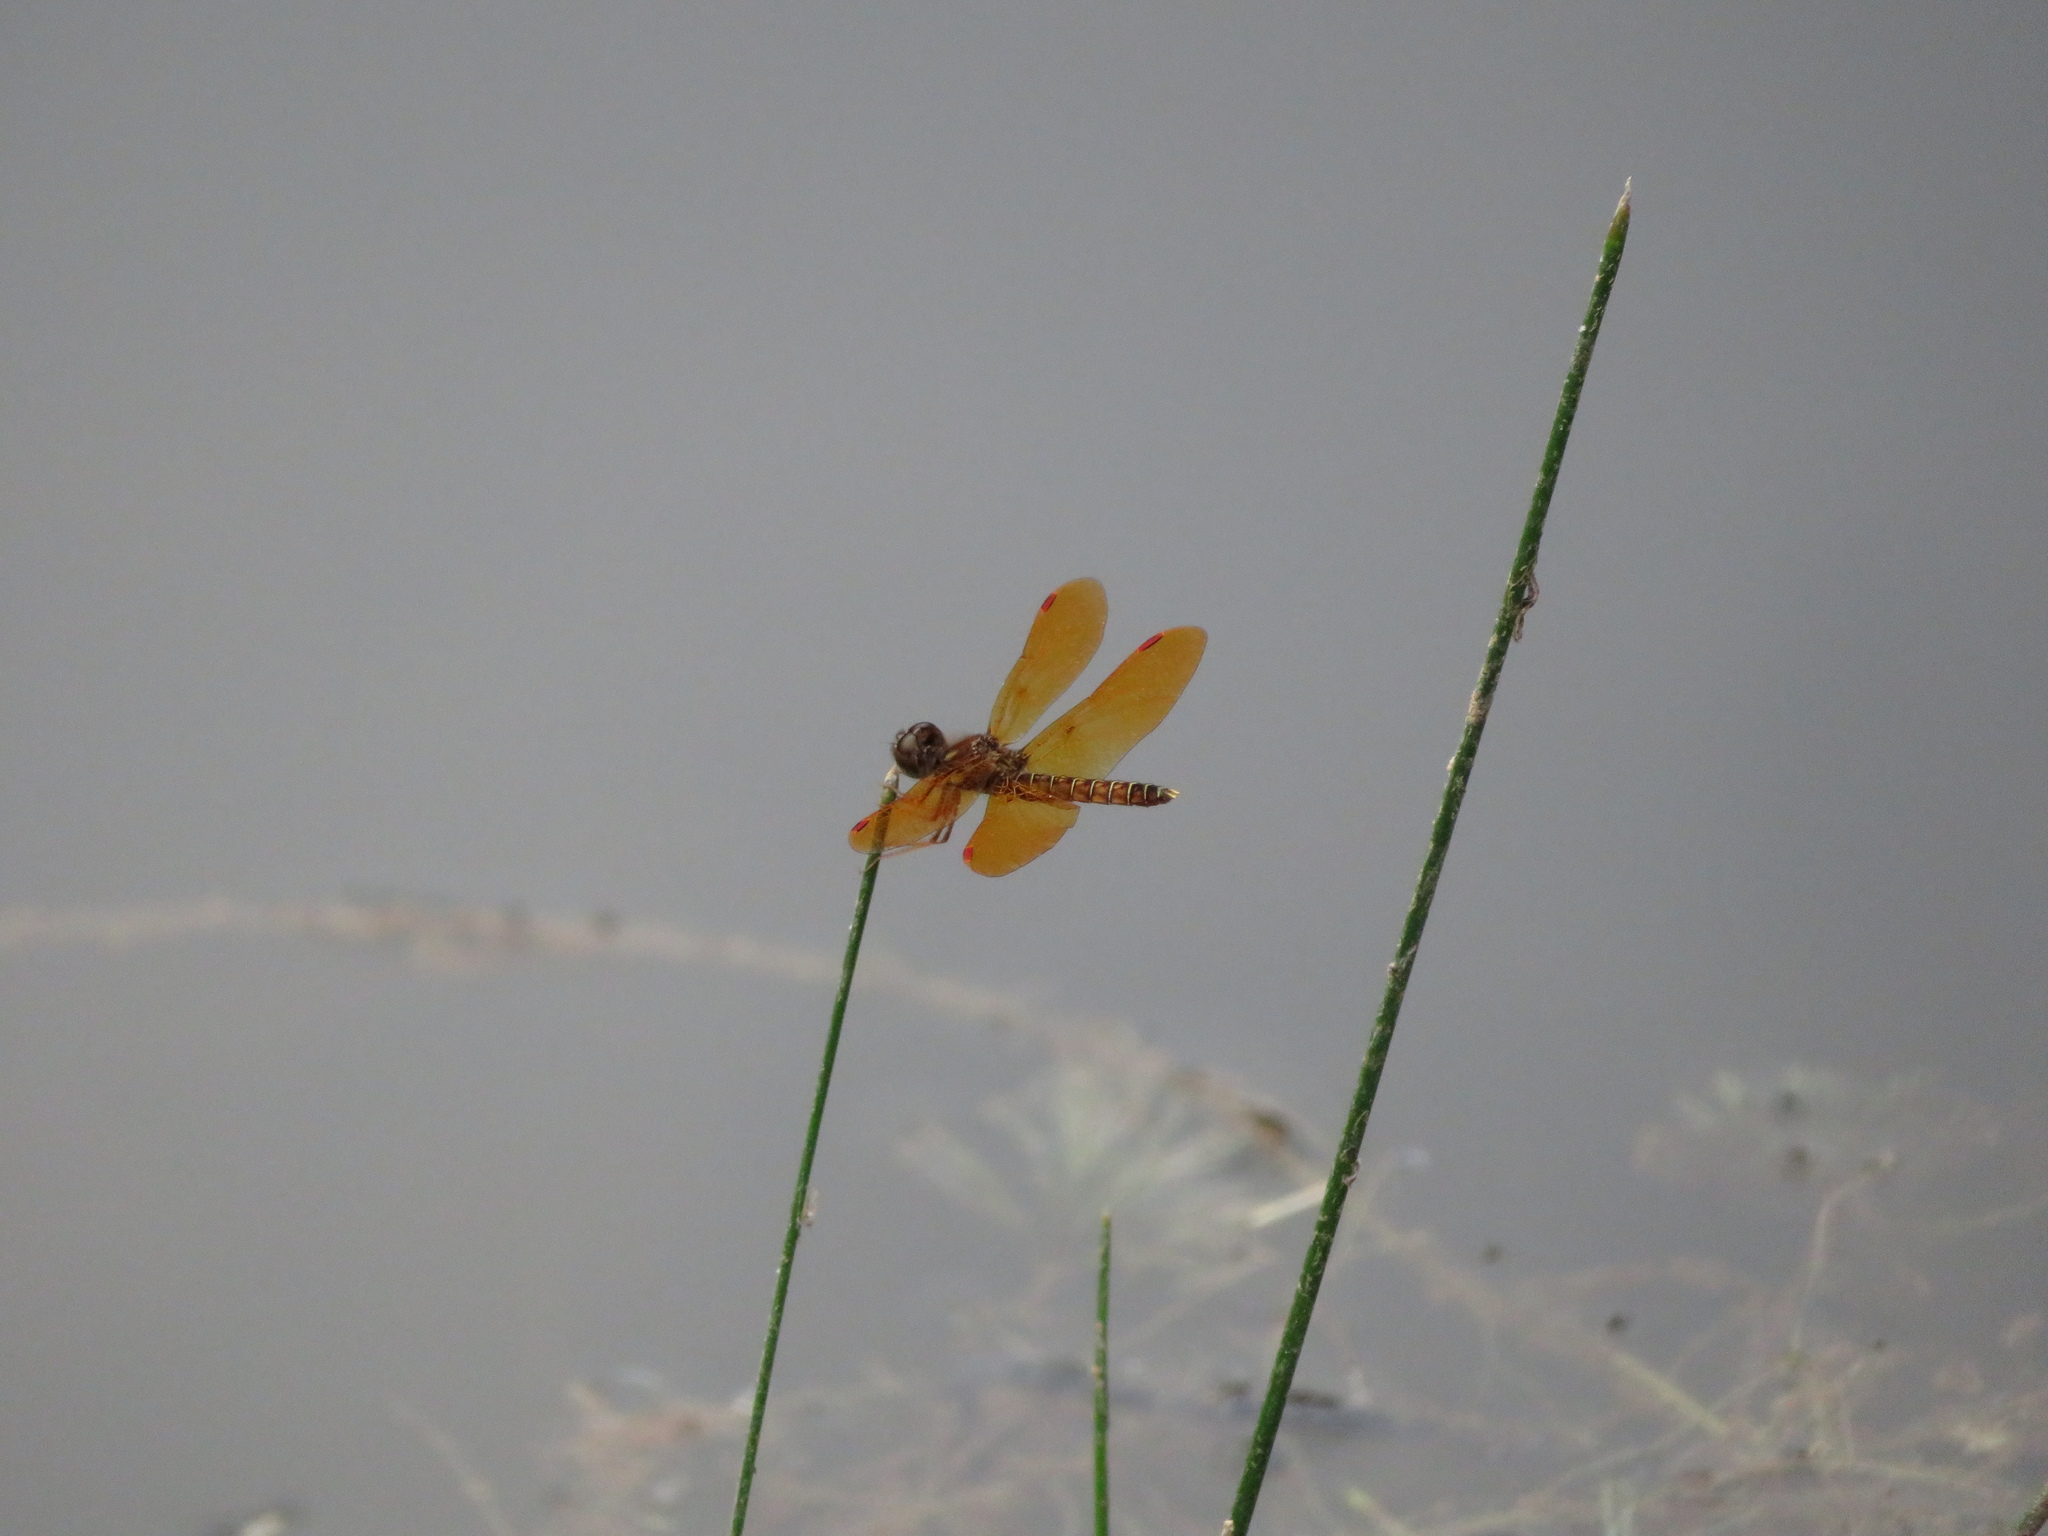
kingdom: Animalia
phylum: Arthropoda
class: Insecta
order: Odonata
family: Libellulidae
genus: Perithemis
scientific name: Perithemis tenera
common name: Eastern amberwing
